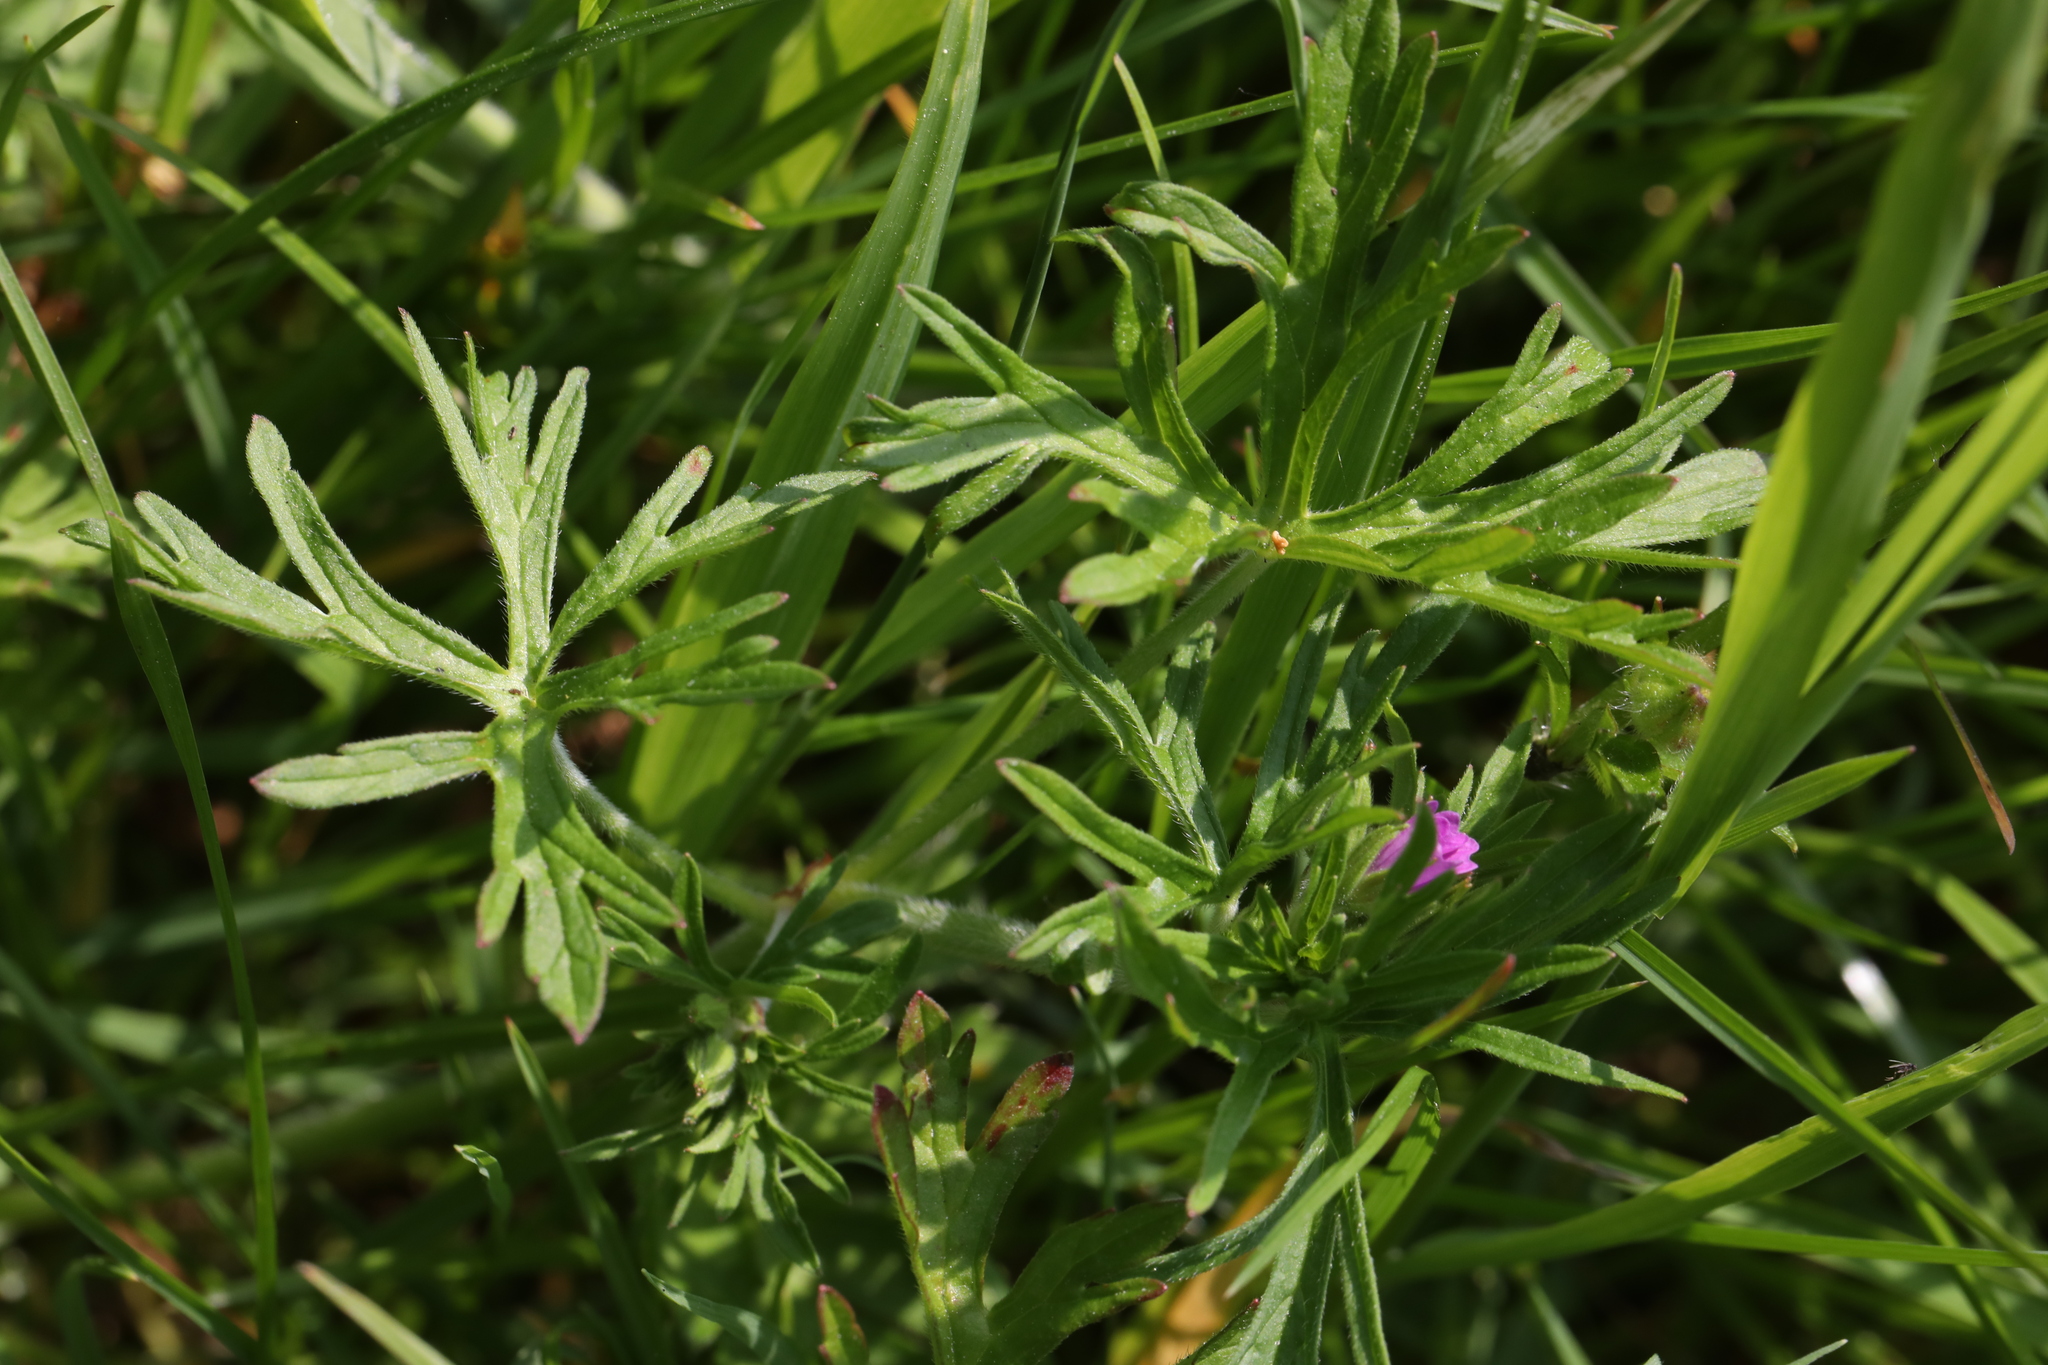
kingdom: Plantae
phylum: Tracheophyta
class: Magnoliopsida
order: Geraniales
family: Geraniaceae
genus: Geranium
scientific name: Geranium dissectum
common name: Cut-leaved crane's-bill
